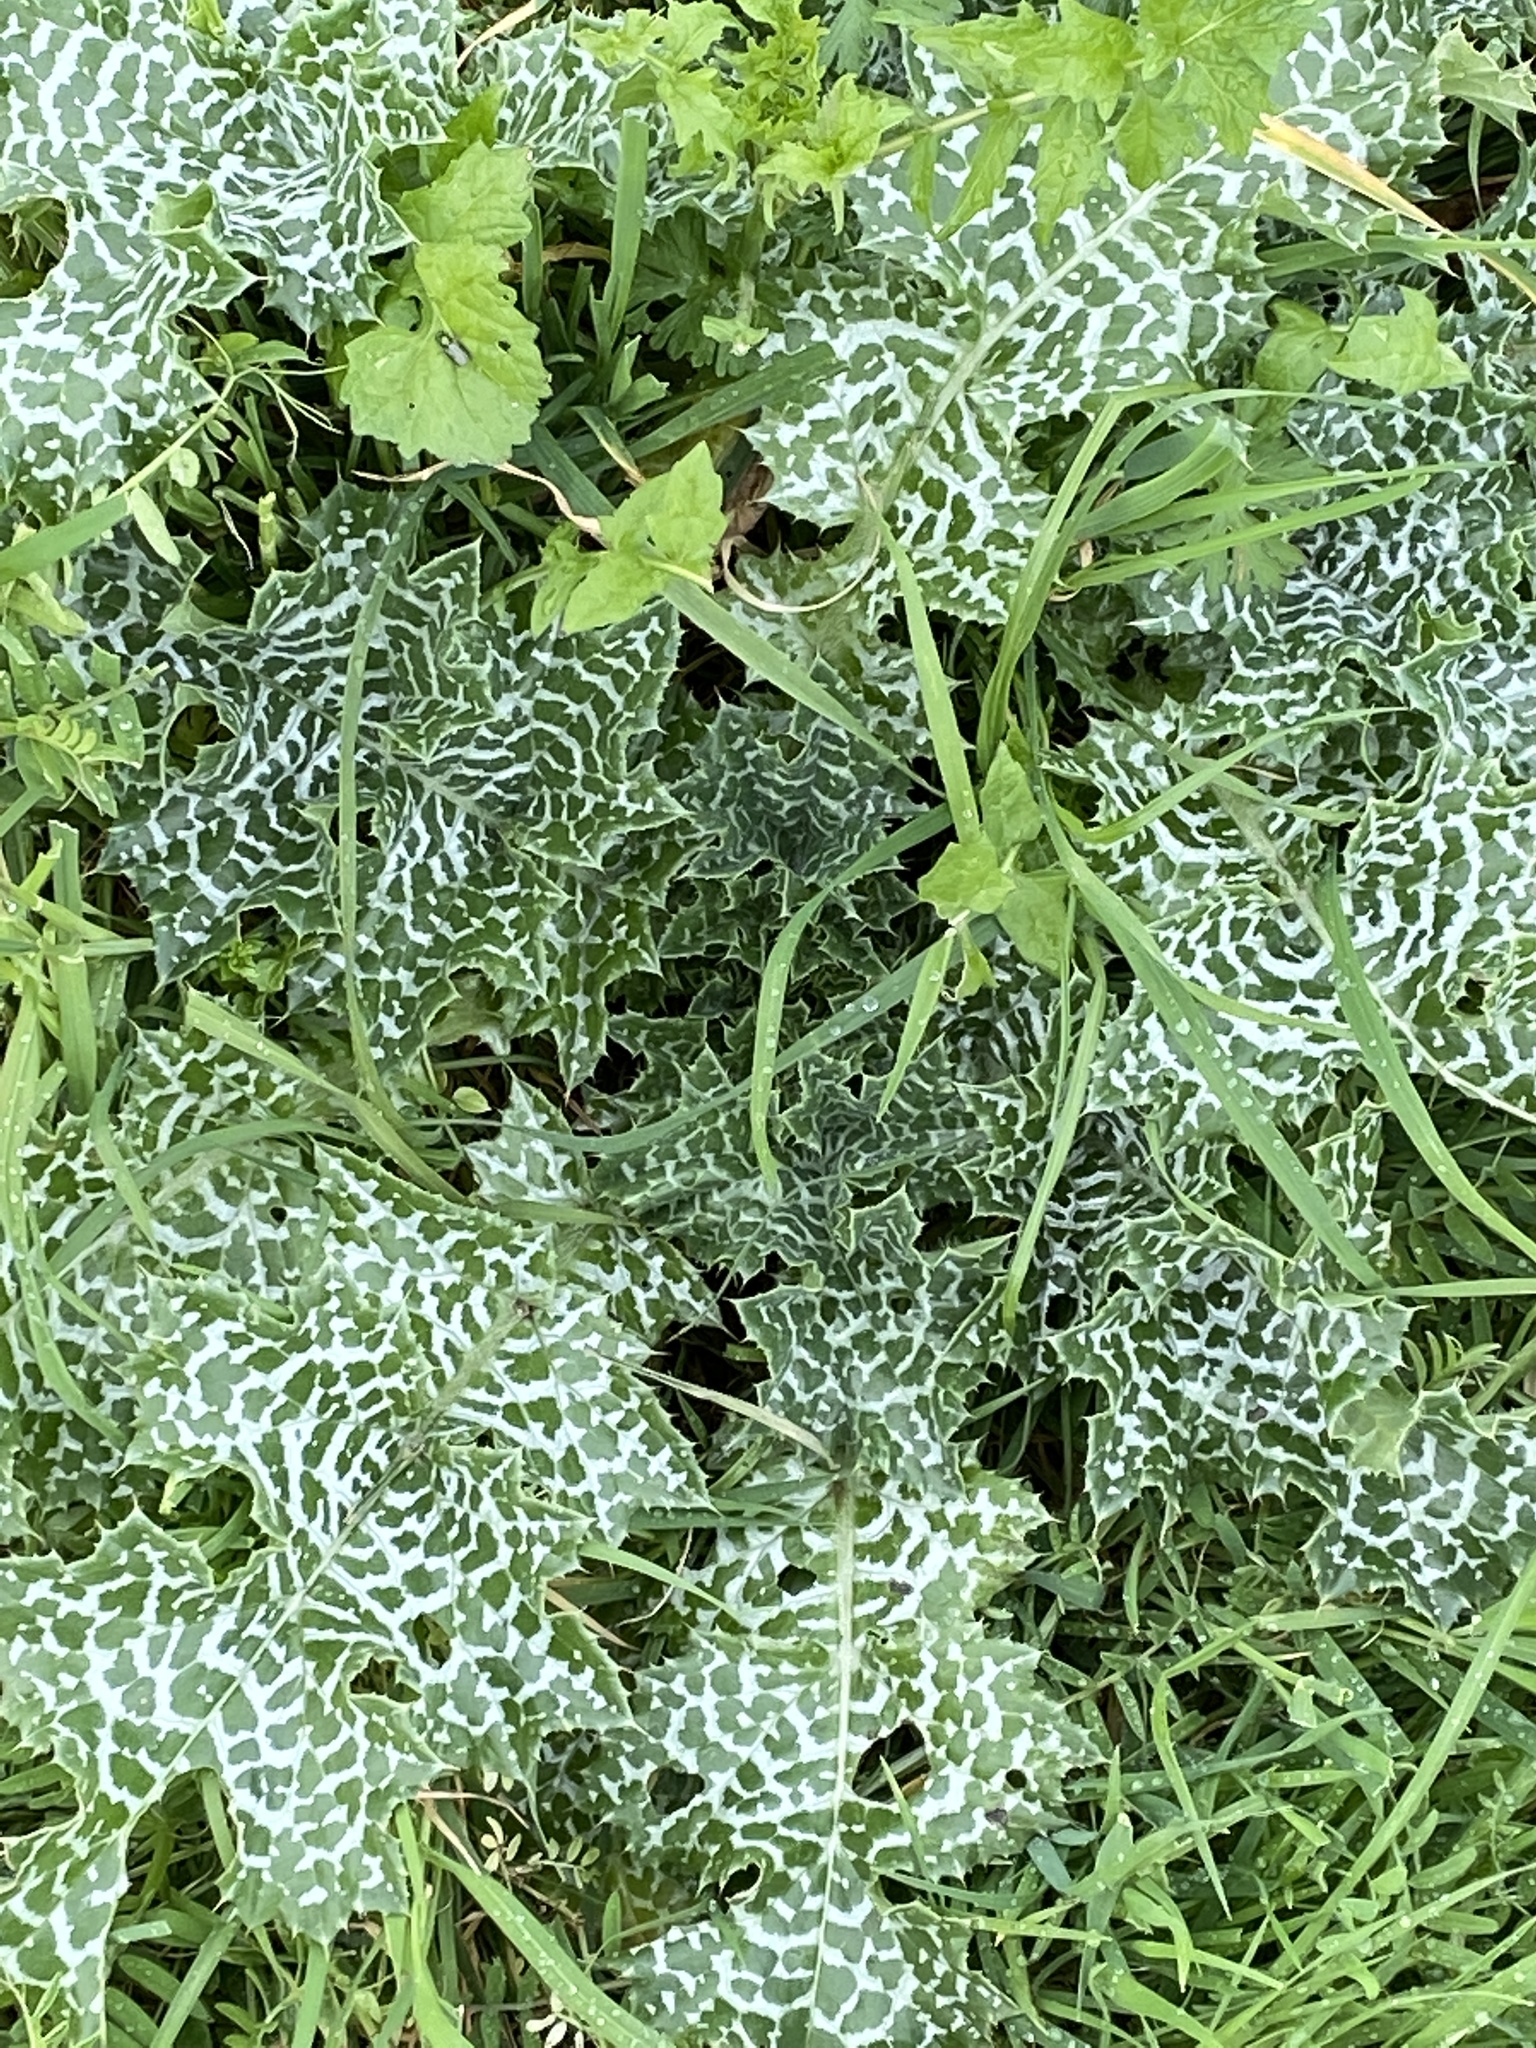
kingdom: Plantae
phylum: Tracheophyta
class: Magnoliopsida
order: Asterales
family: Asteraceae
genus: Silybum
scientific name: Silybum marianum
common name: Milk thistle
